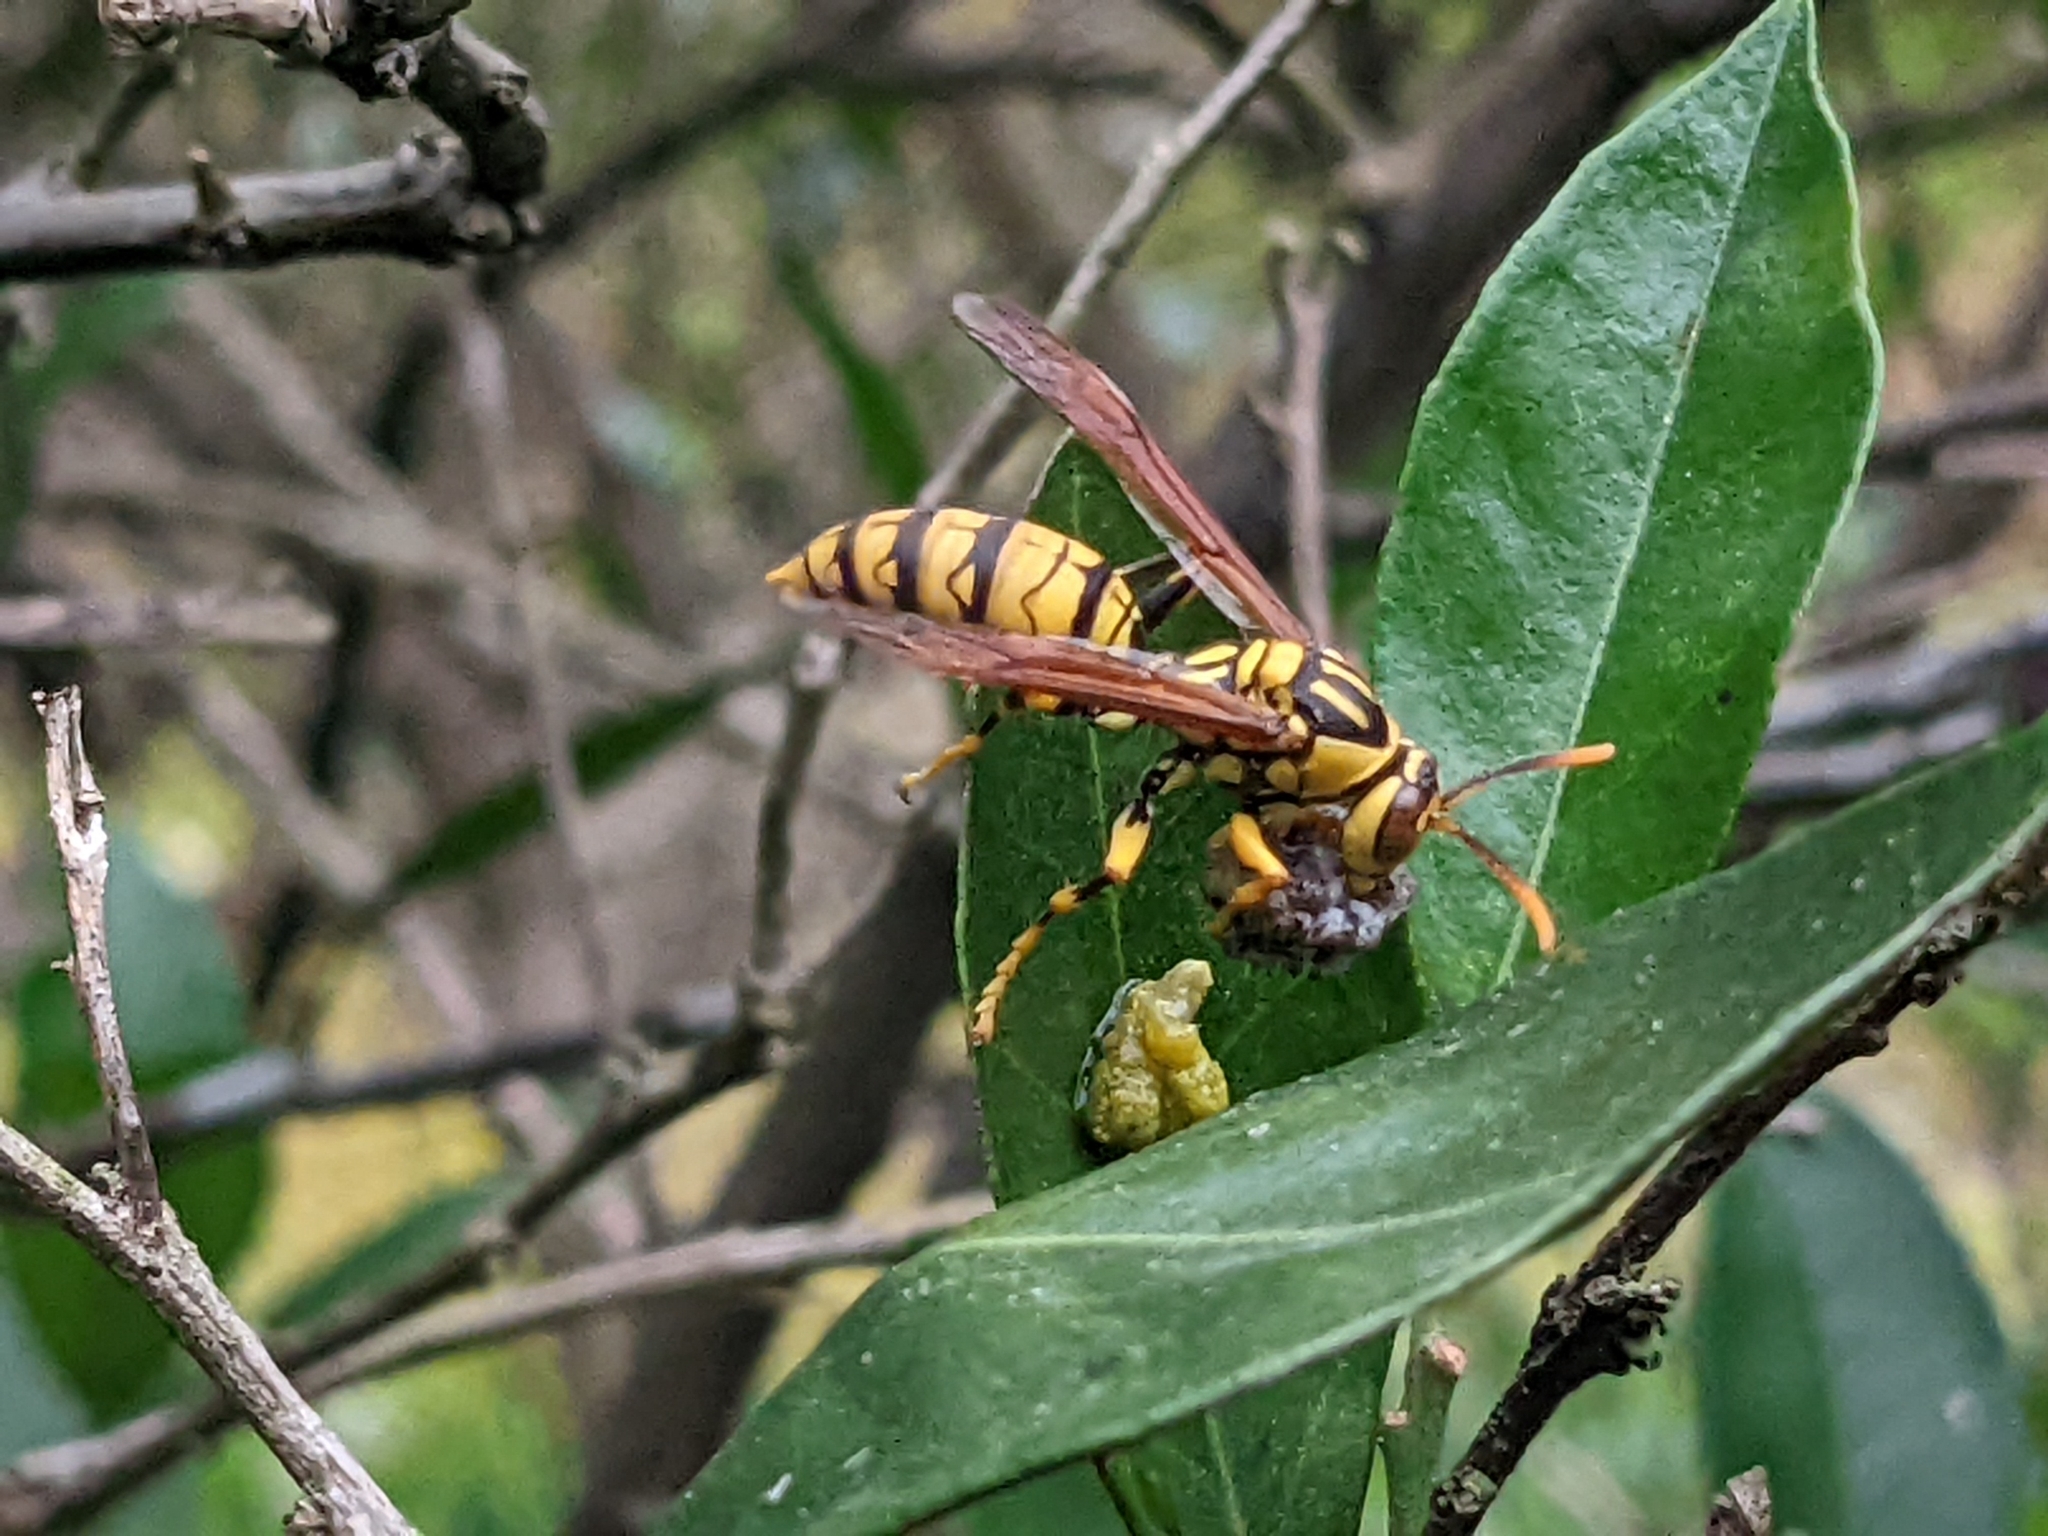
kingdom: Animalia
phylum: Arthropoda
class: Insecta
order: Hymenoptera
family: Eumenidae
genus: Polistes
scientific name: Polistes rothneyi
